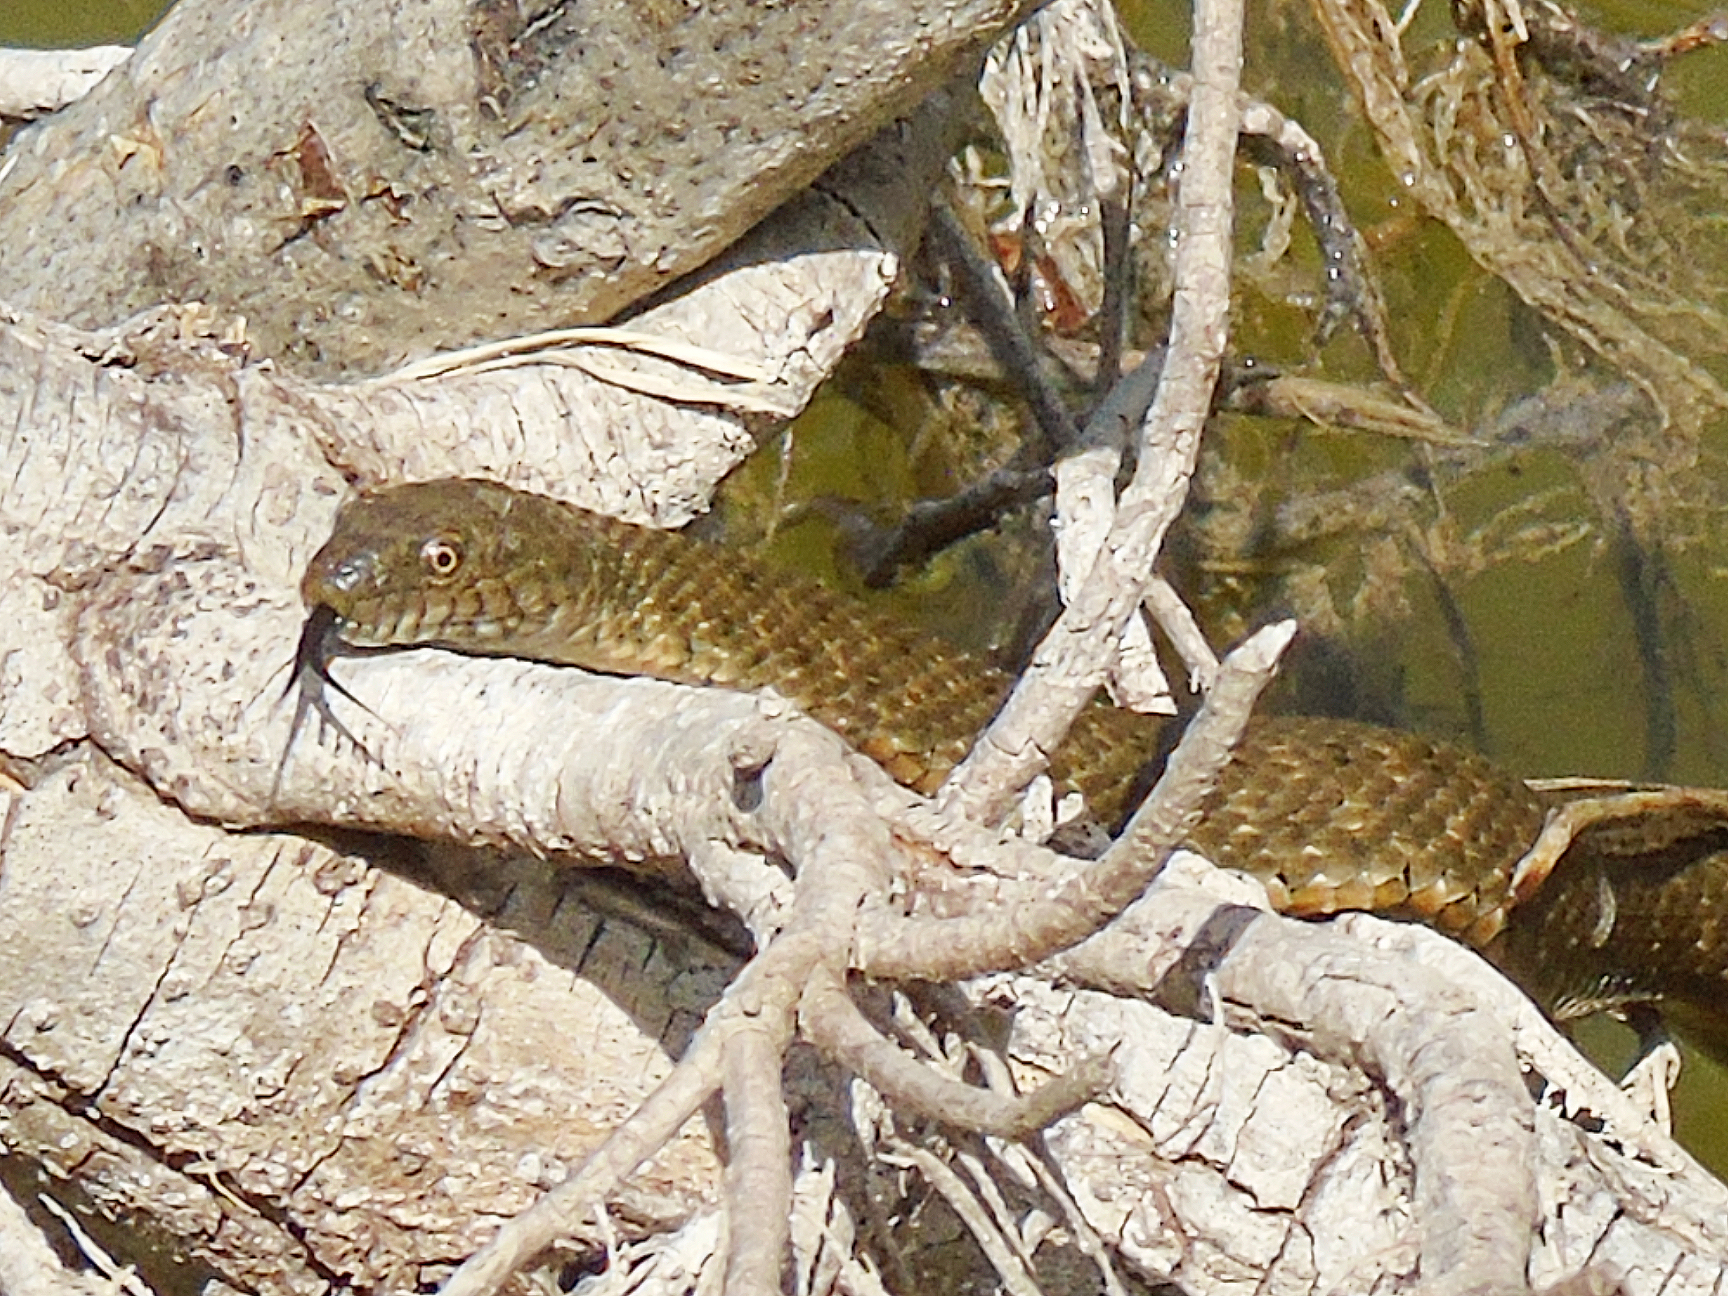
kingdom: Animalia
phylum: Chordata
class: Squamata
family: Colubridae
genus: Natrix
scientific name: Natrix tessellata
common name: Dice snake
